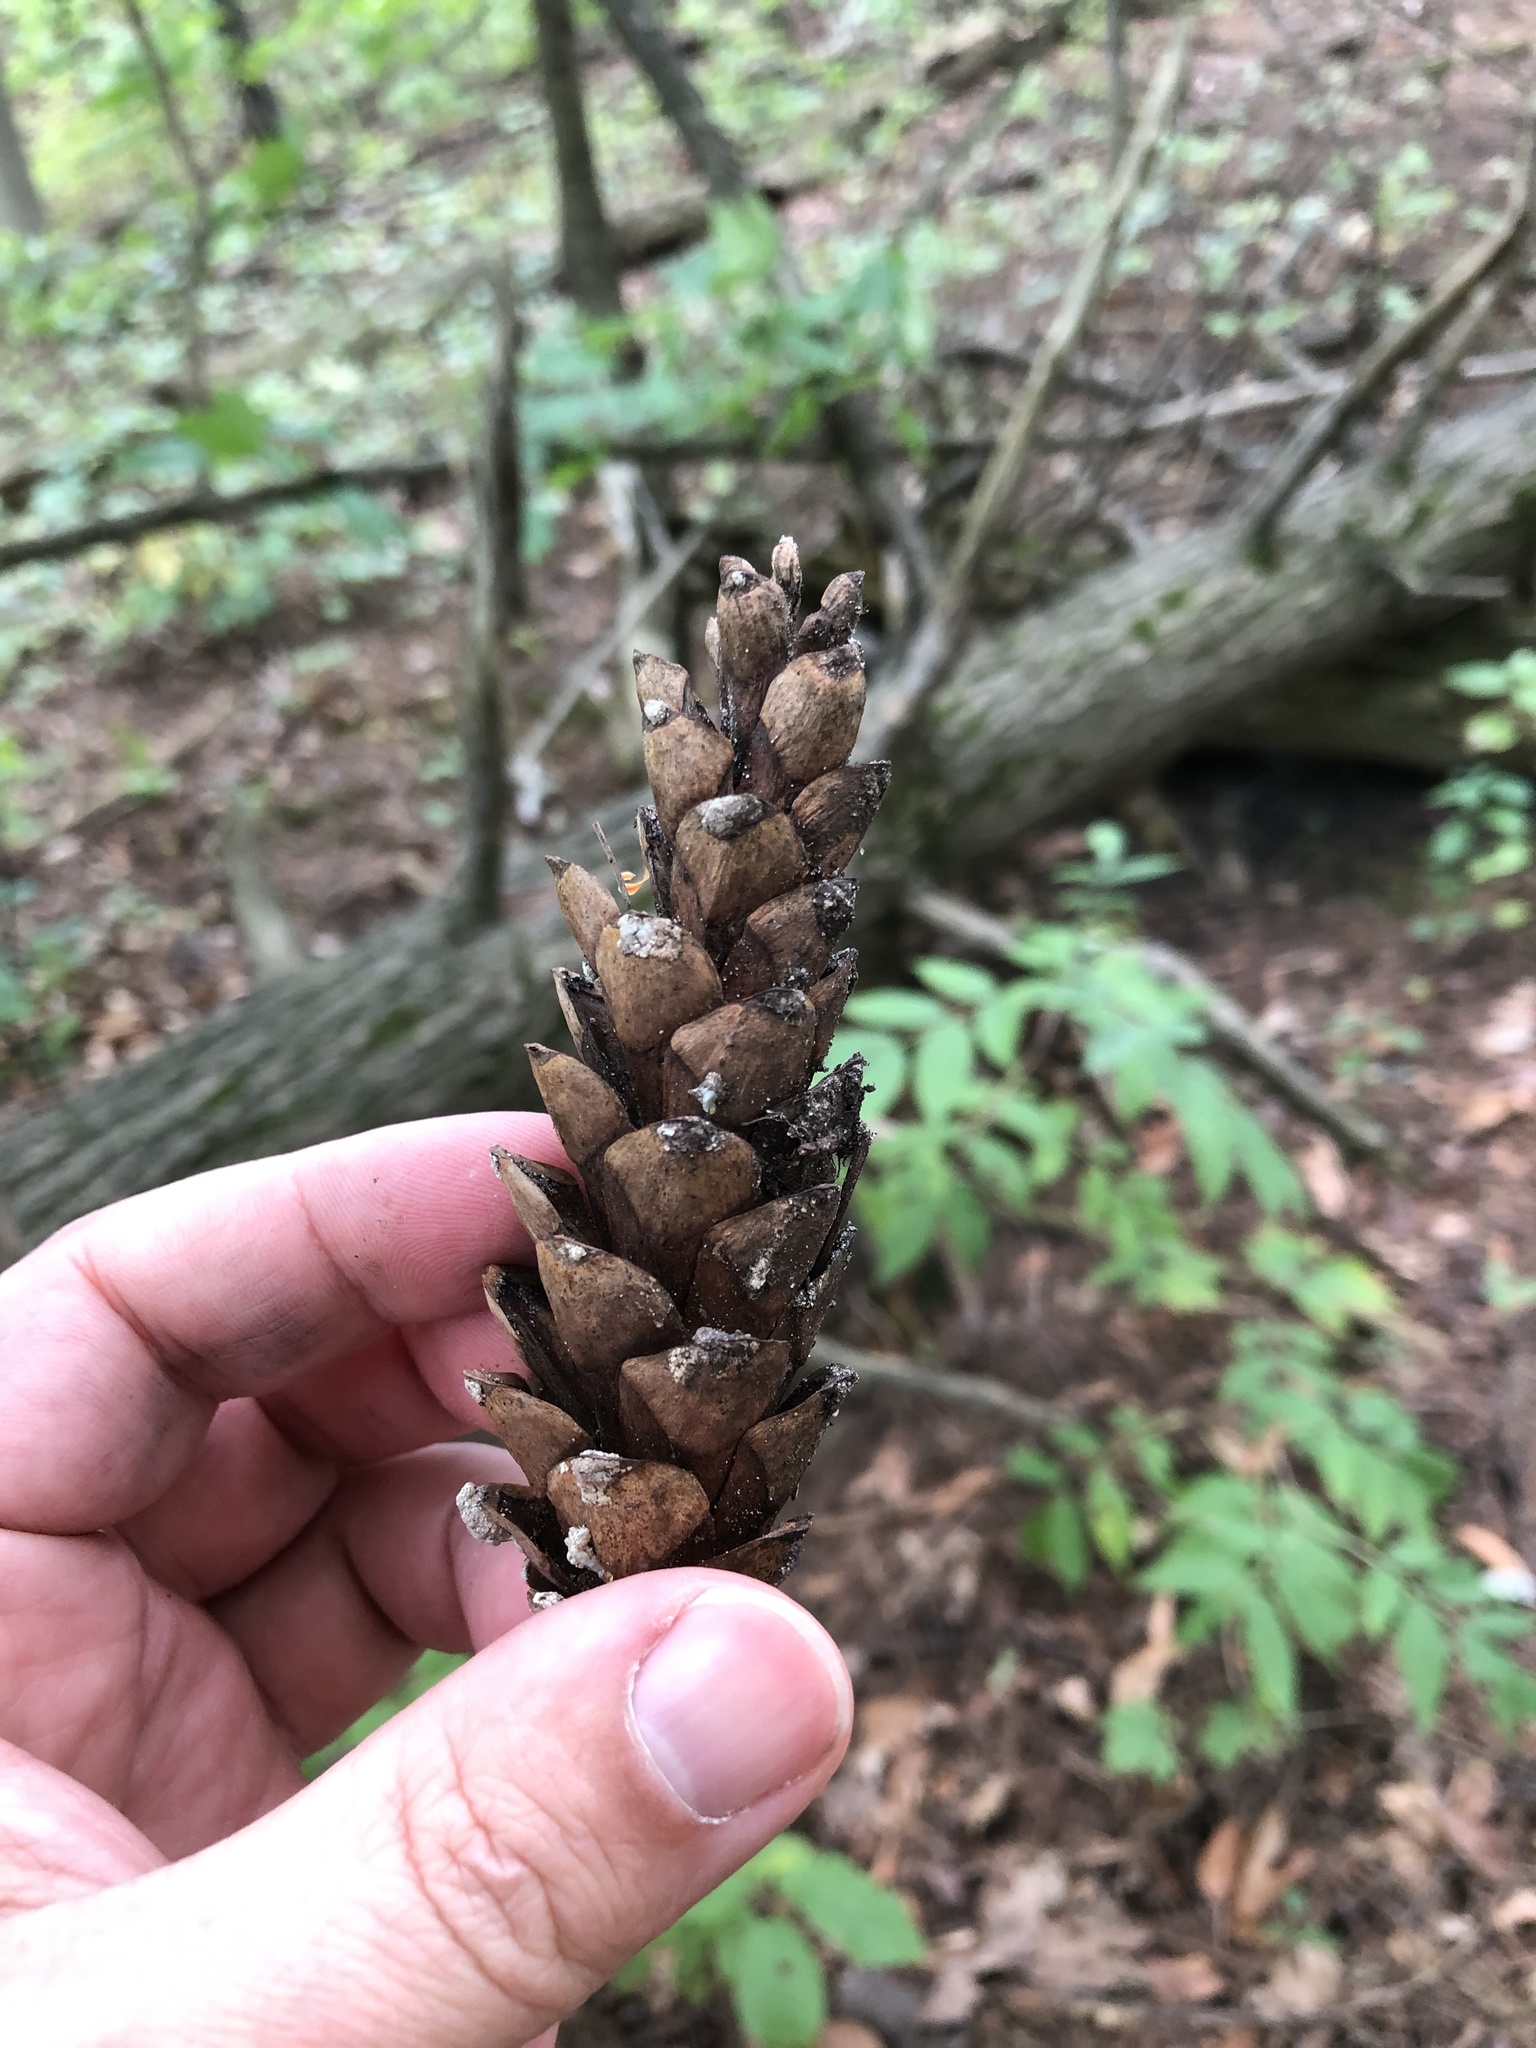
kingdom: Plantae
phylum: Tracheophyta
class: Pinopsida
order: Pinales
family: Pinaceae
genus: Pinus
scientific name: Pinus strobus
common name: Weymouth pine
